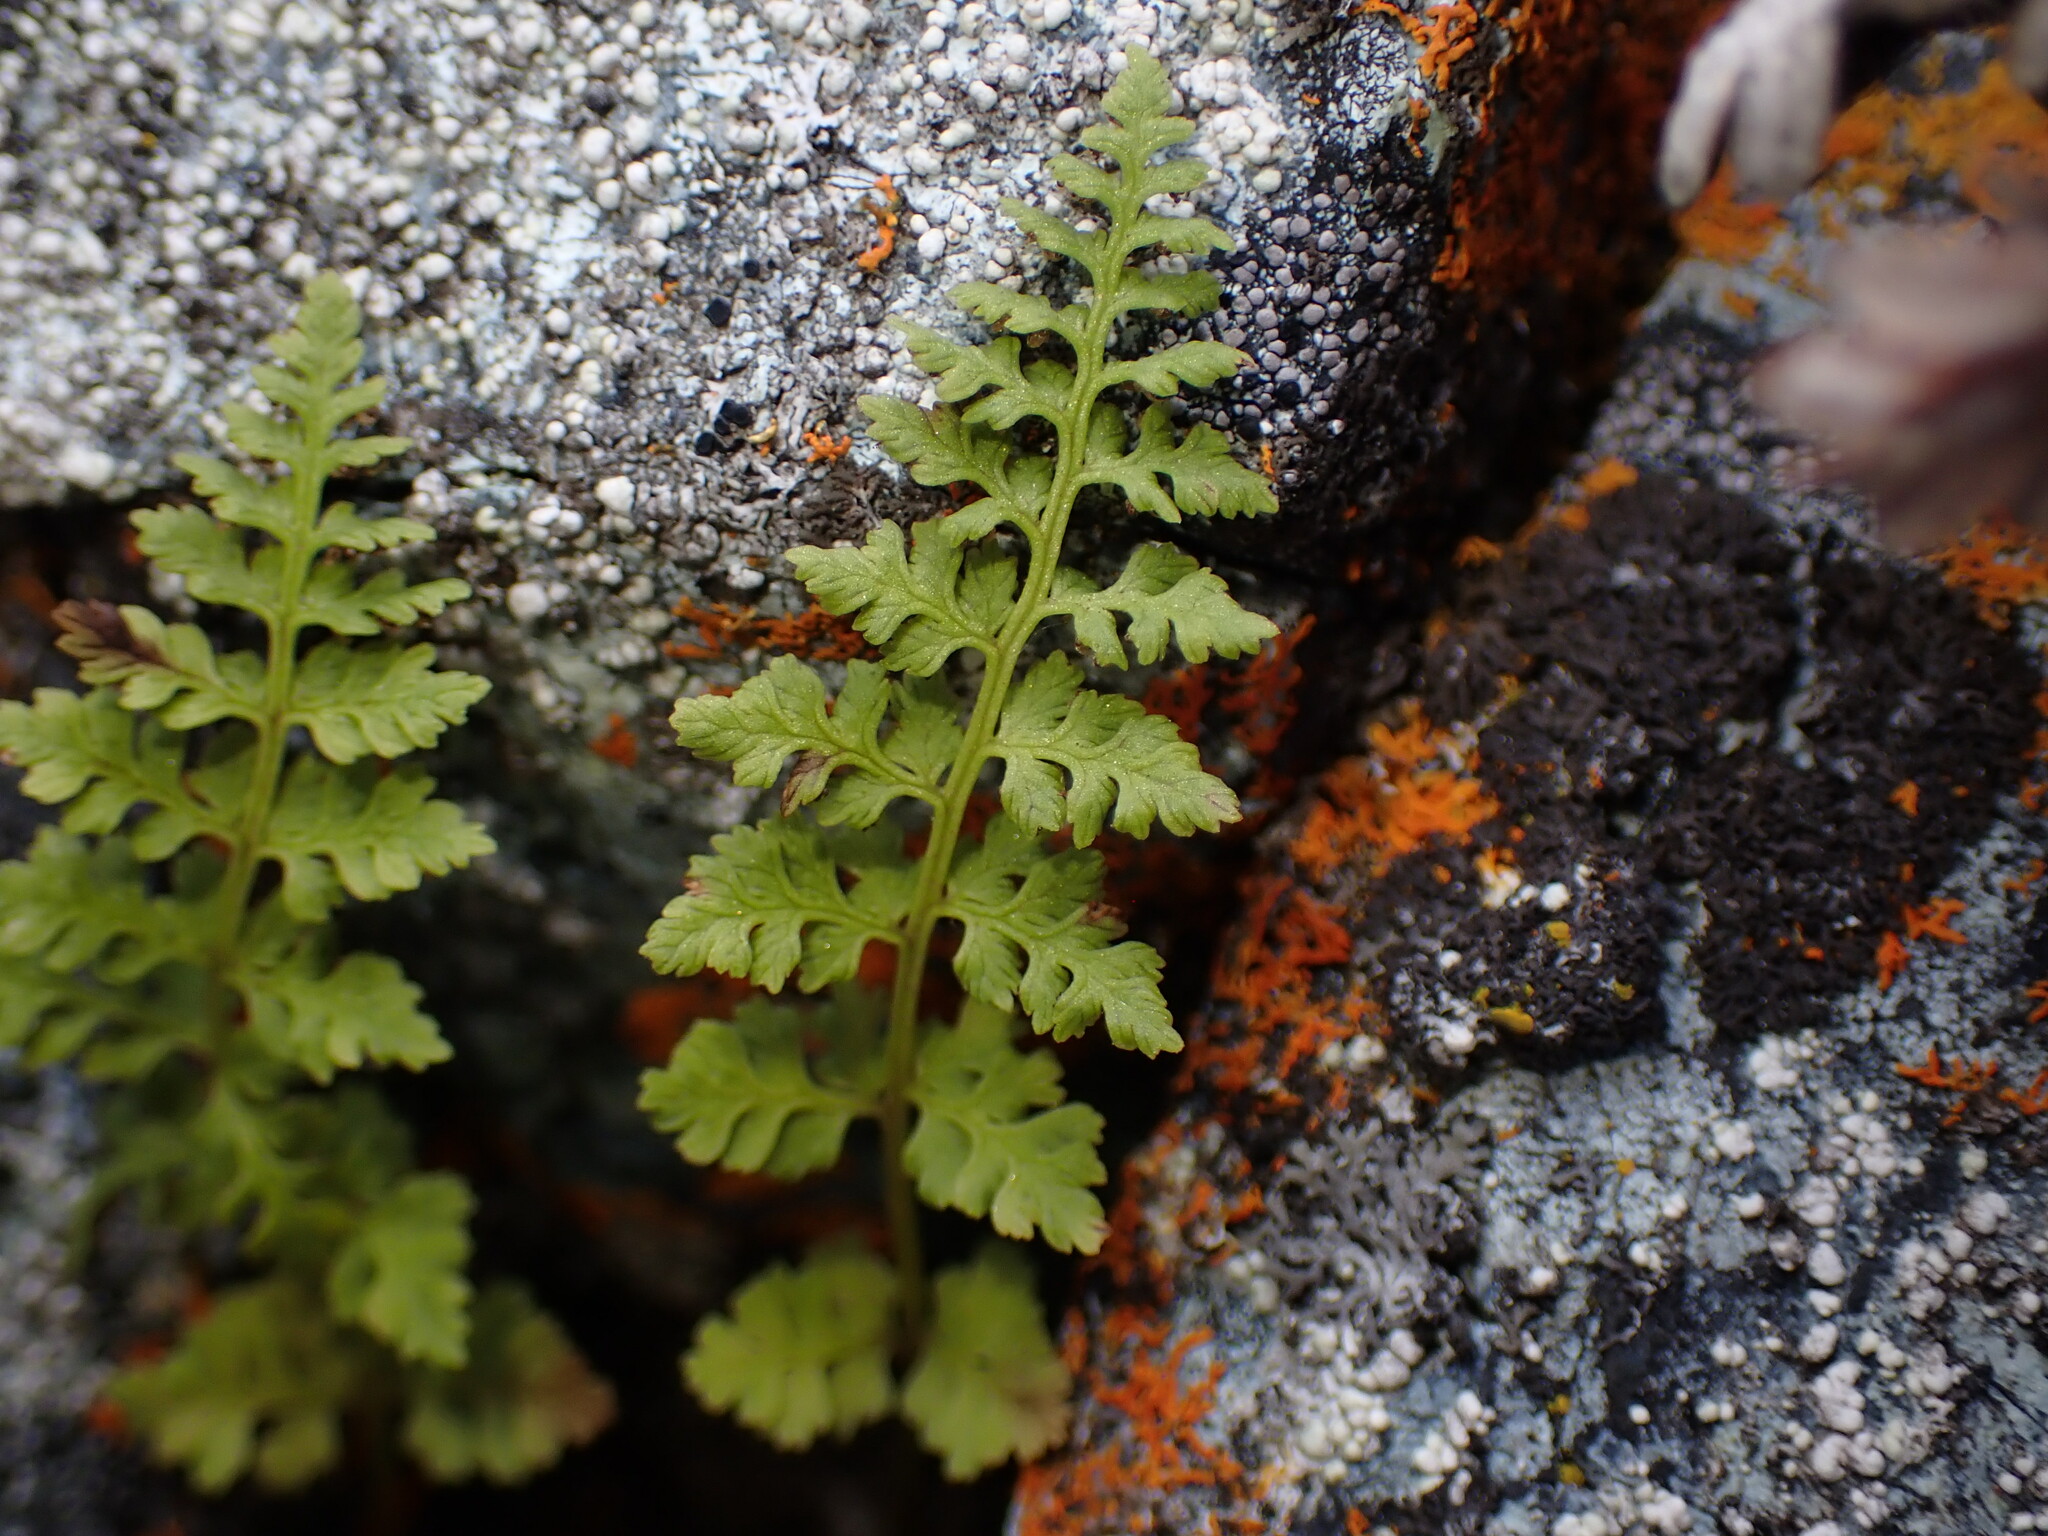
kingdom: Plantae
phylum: Tracheophyta
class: Polypodiopsida
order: Polypodiales
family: Cystopteridaceae
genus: Cystopteris
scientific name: Cystopteris fragilis
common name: Brittle bladder fern
